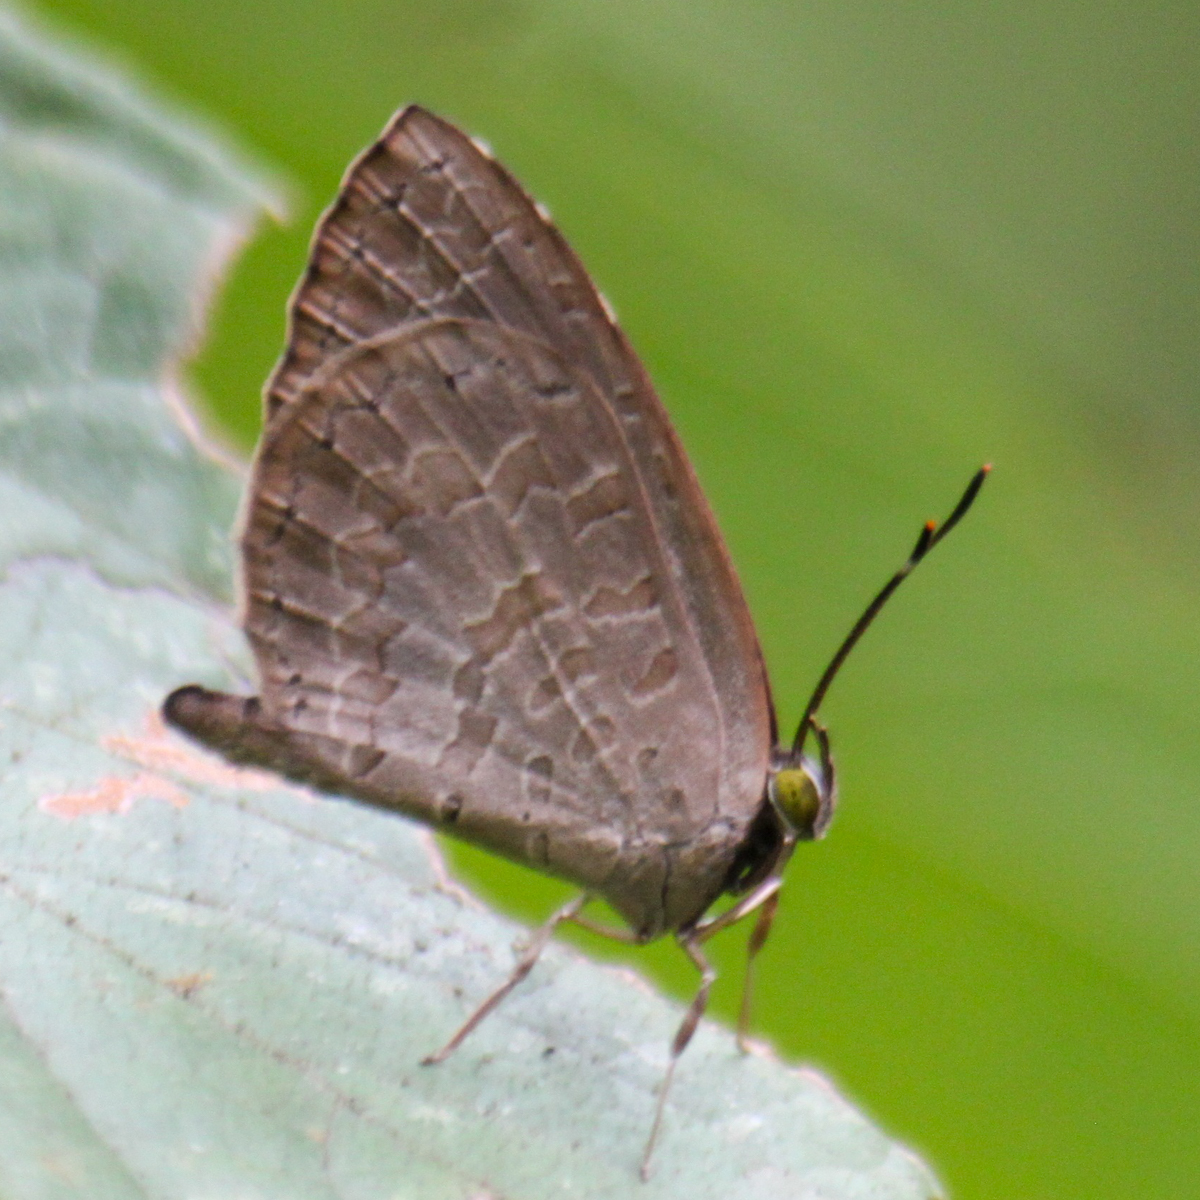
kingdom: Animalia
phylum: Arthropoda
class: Insecta
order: Lepidoptera
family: Lycaenidae
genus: Miletus
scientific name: Miletus chinensis
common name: Common brownie
